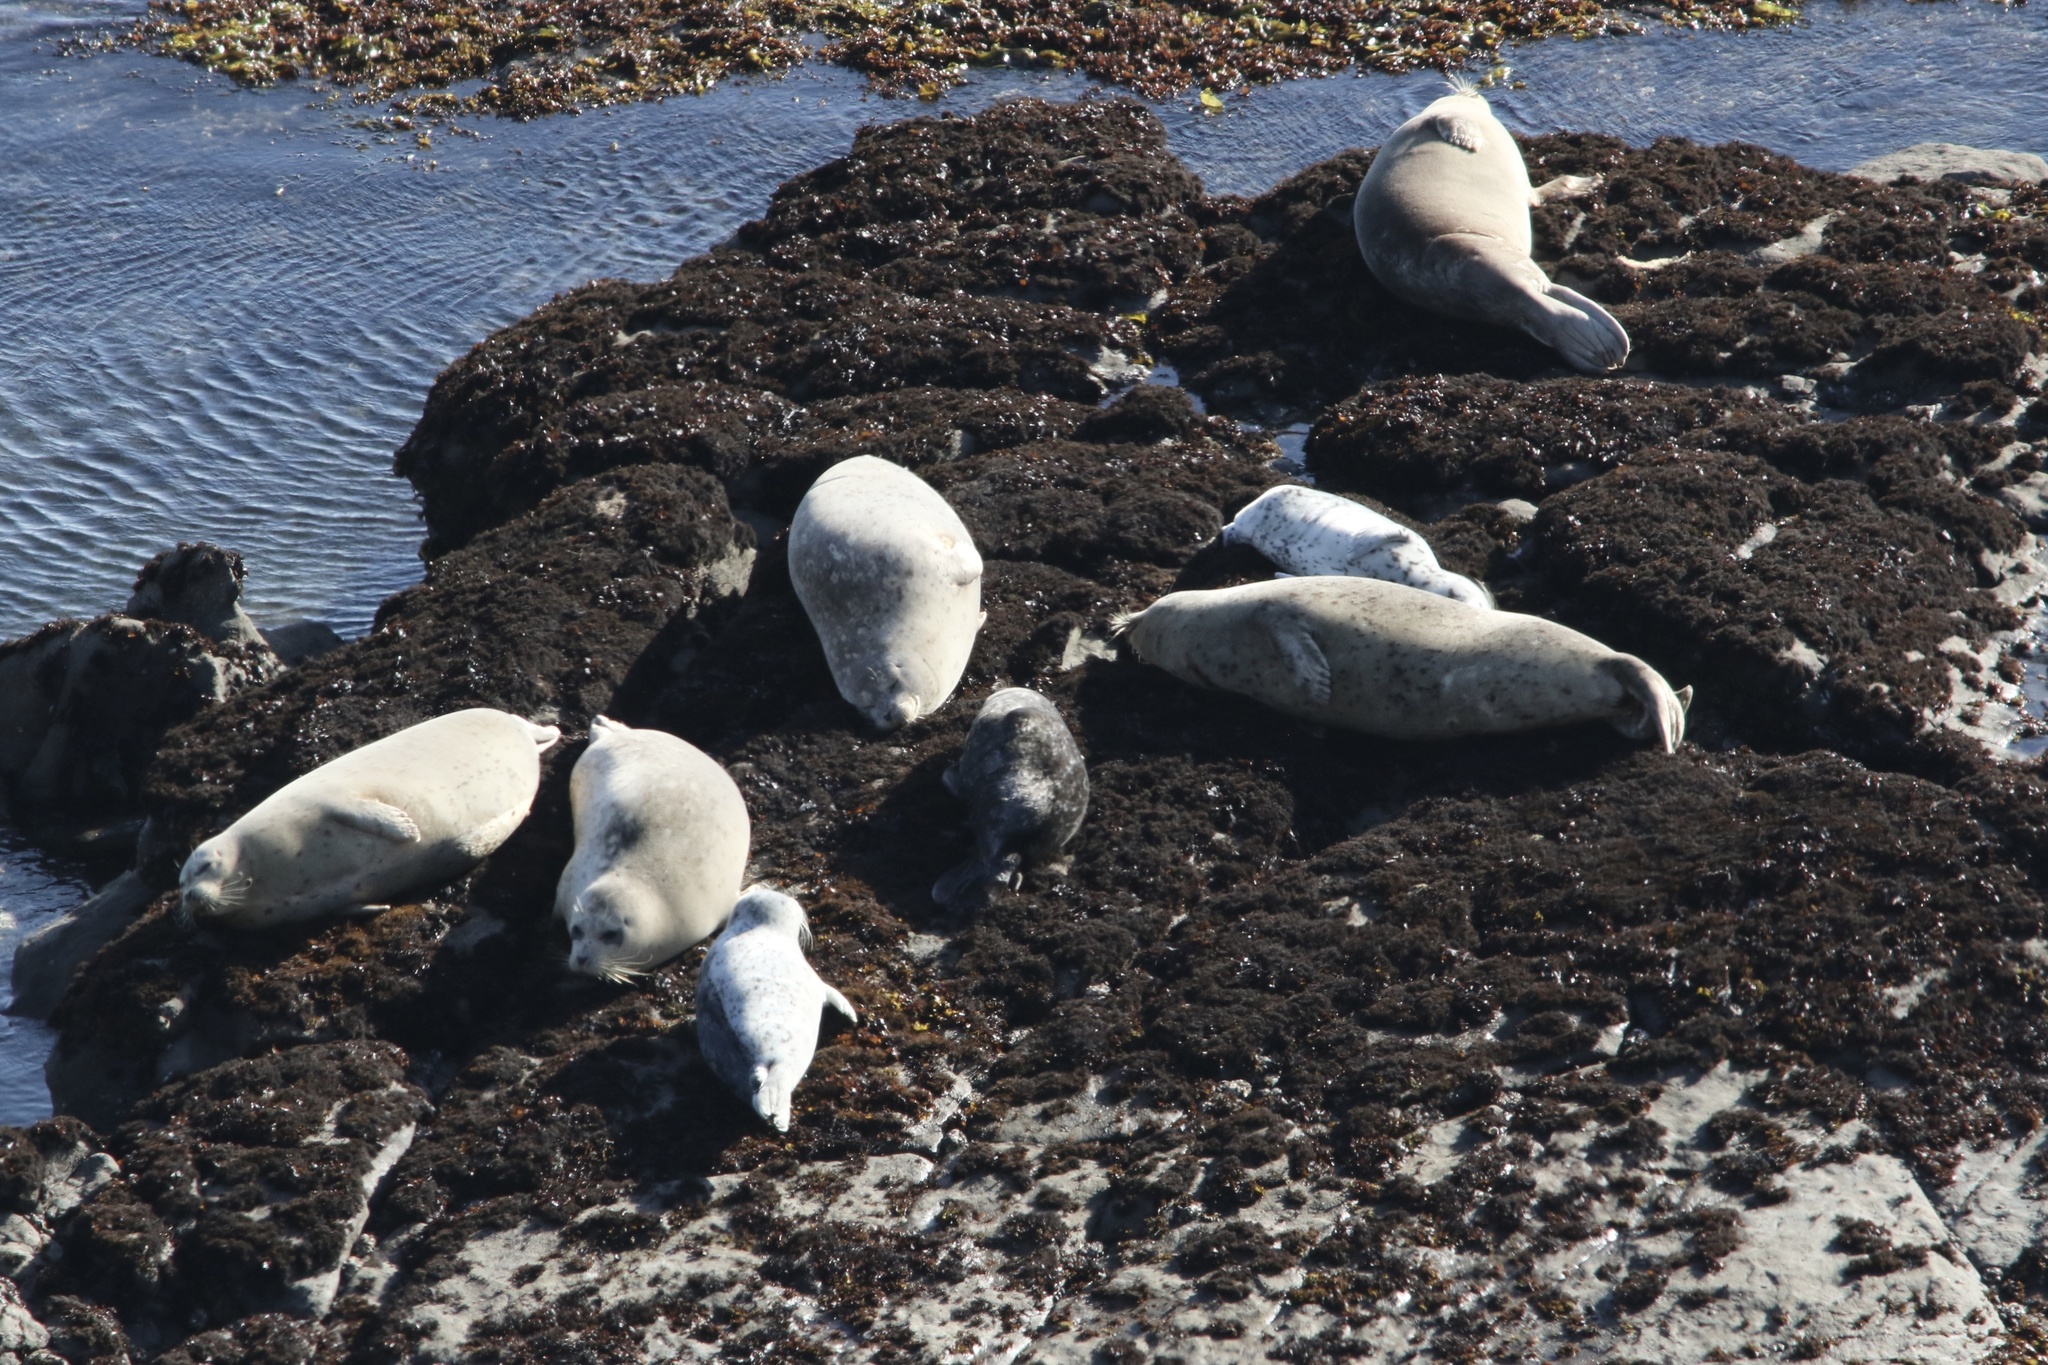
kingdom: Animalia
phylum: Chordata
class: Mammalia
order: Carnivora
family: Phocidae
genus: Phoca
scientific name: Phoca vitulina
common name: Harbor seal
